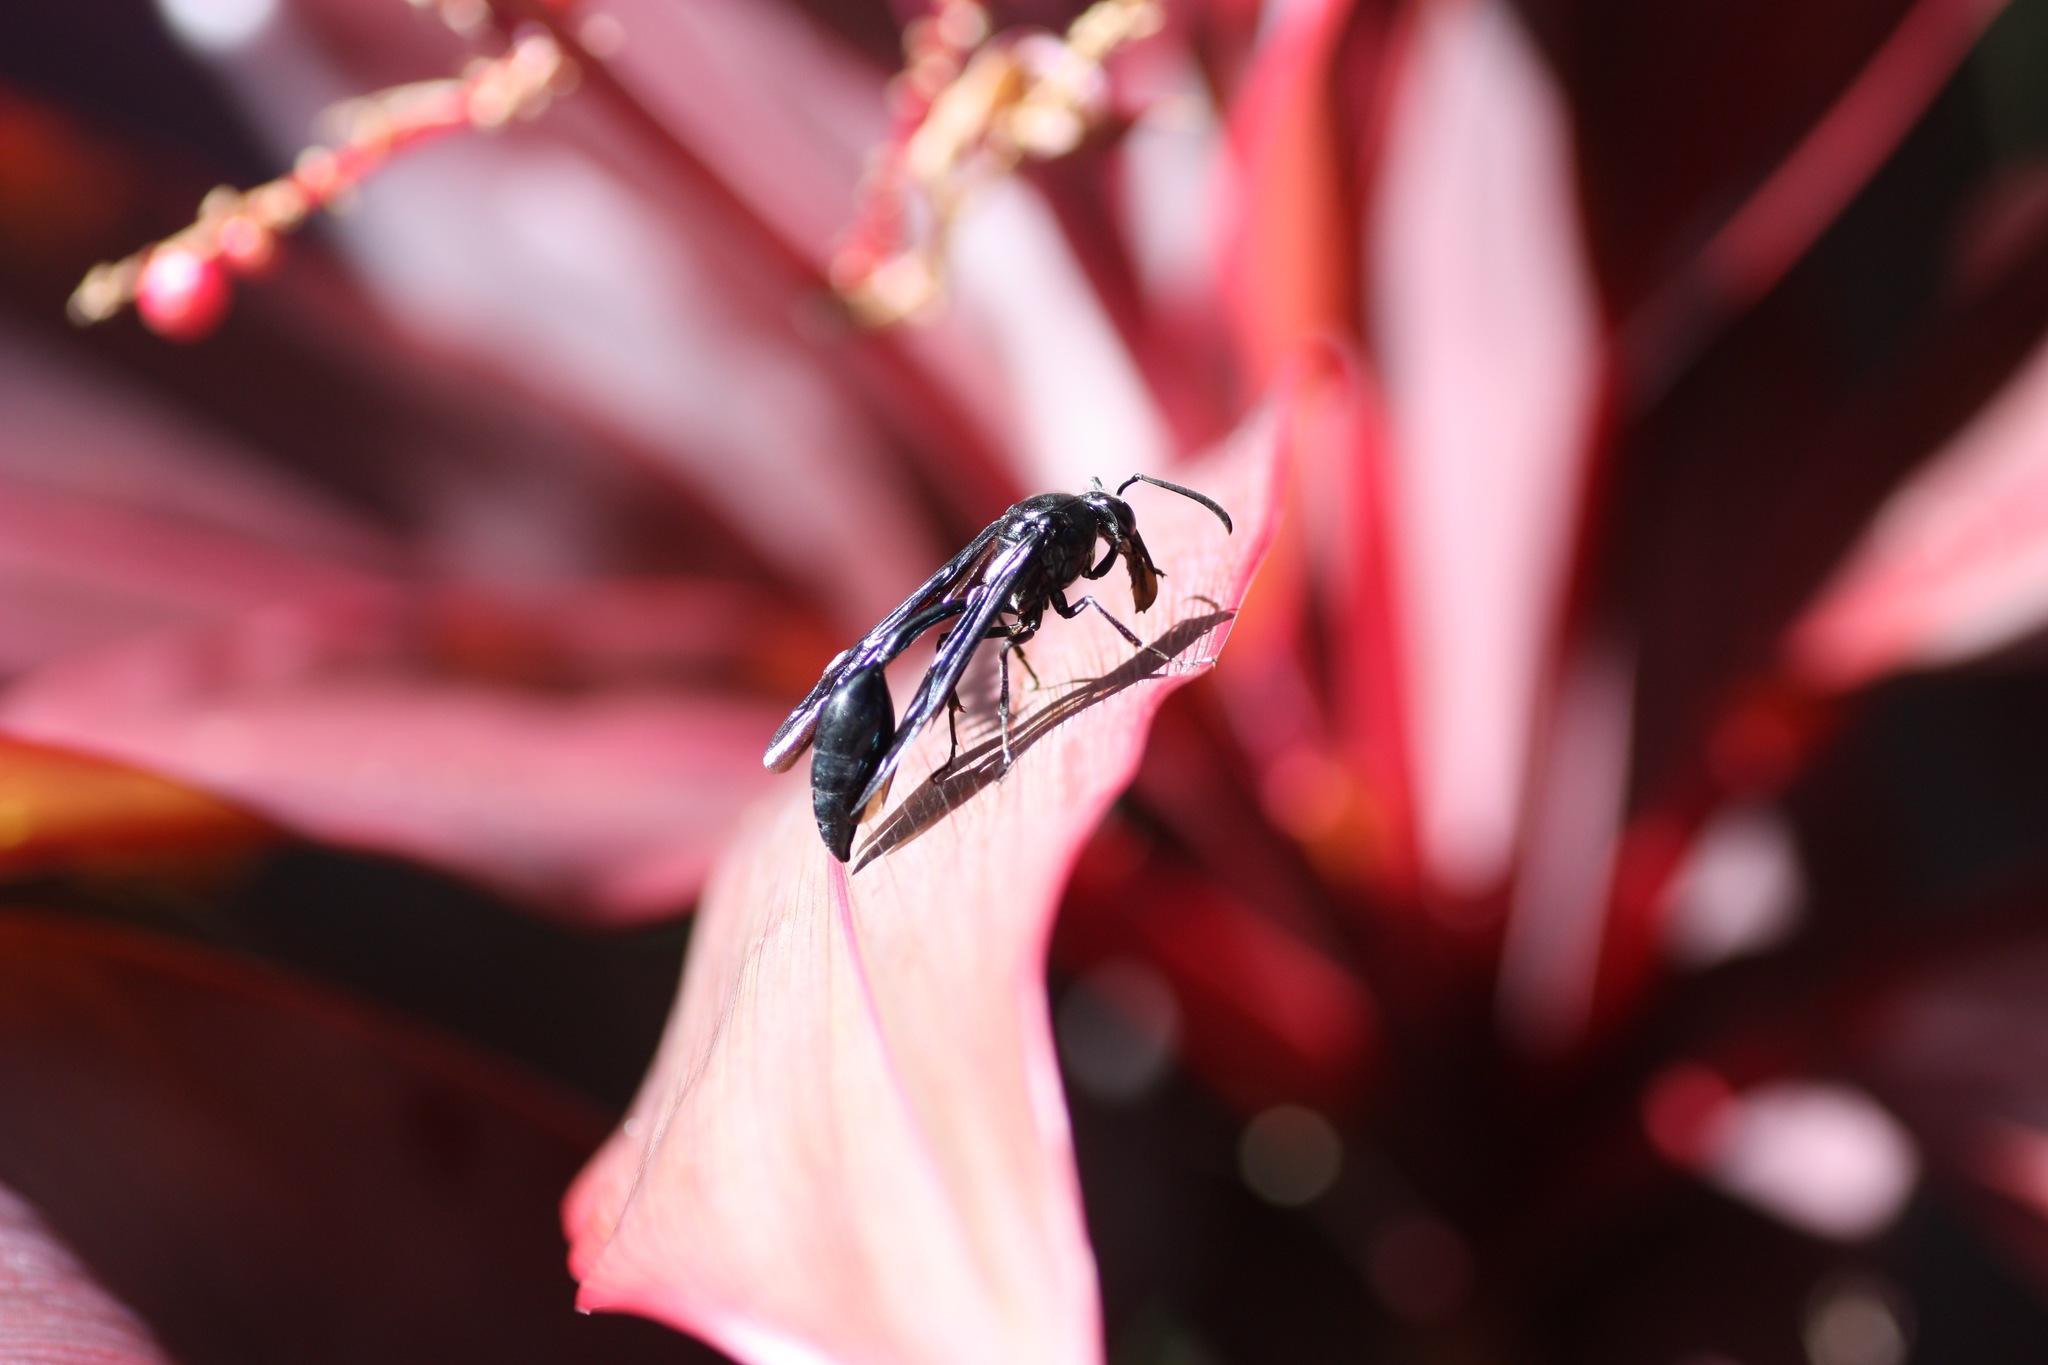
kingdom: Animalia
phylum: Arthropoda
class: Insecta
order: Hymenoptera
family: Eumenidae
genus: Phimenes
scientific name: Phimenes curvatus
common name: Black delta vespid wasp
